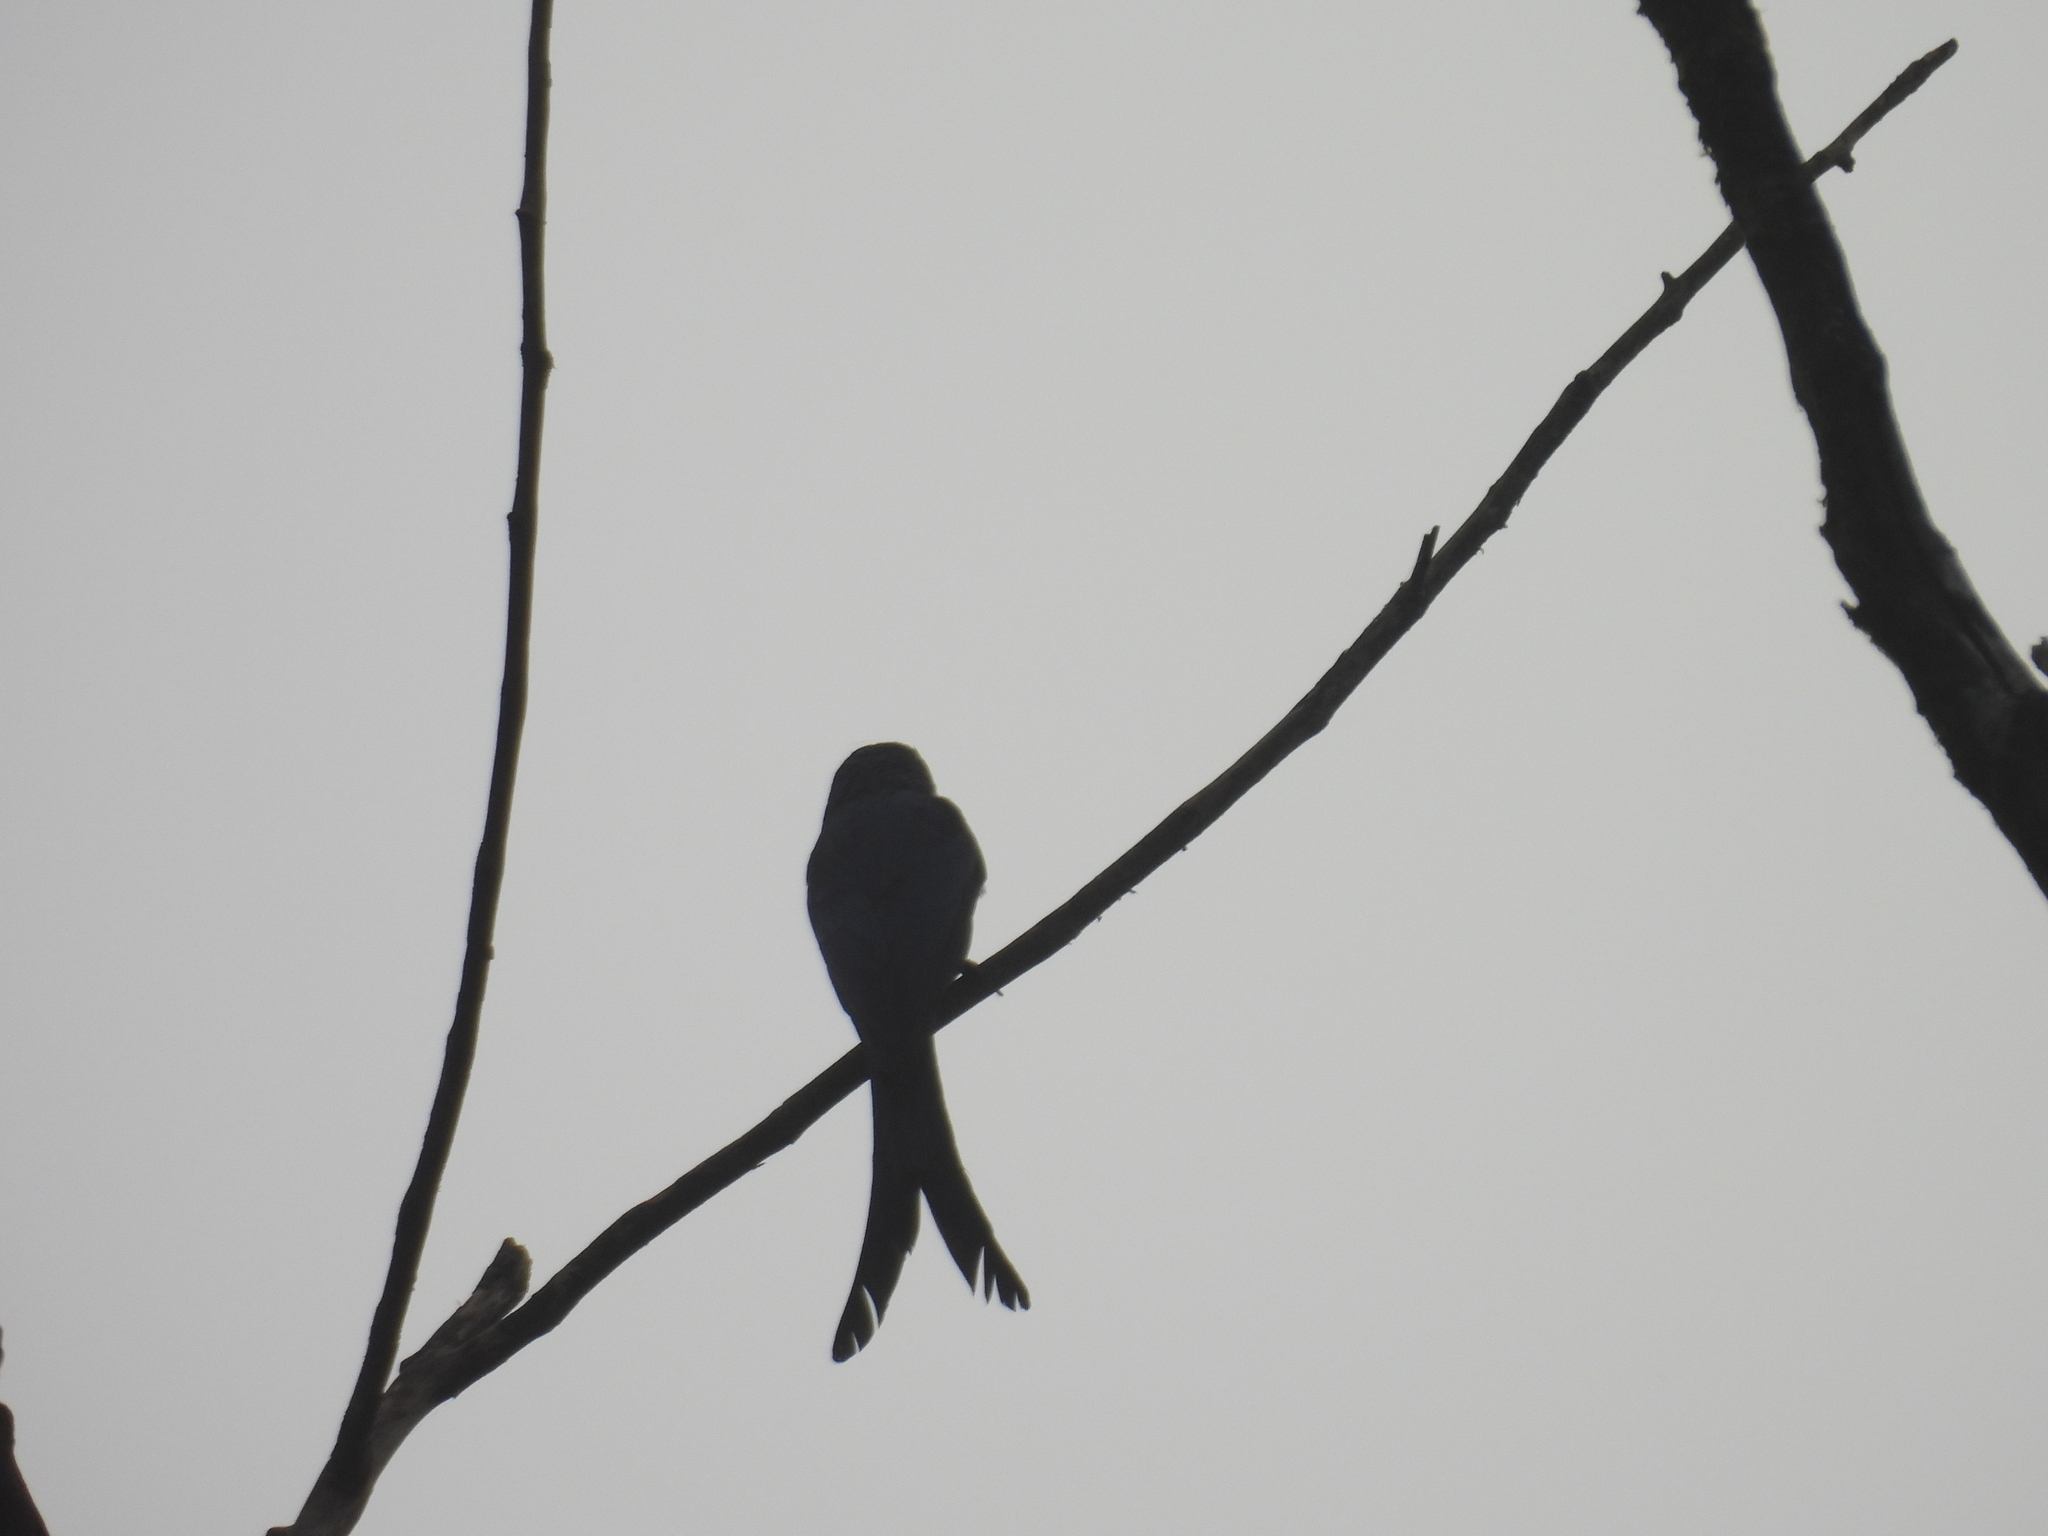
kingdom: Animalia
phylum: Chordata
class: Aves
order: Passeriformes
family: Dicruridae
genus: Dicrurus
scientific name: Dicrurus macrocercus
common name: Black drongo
